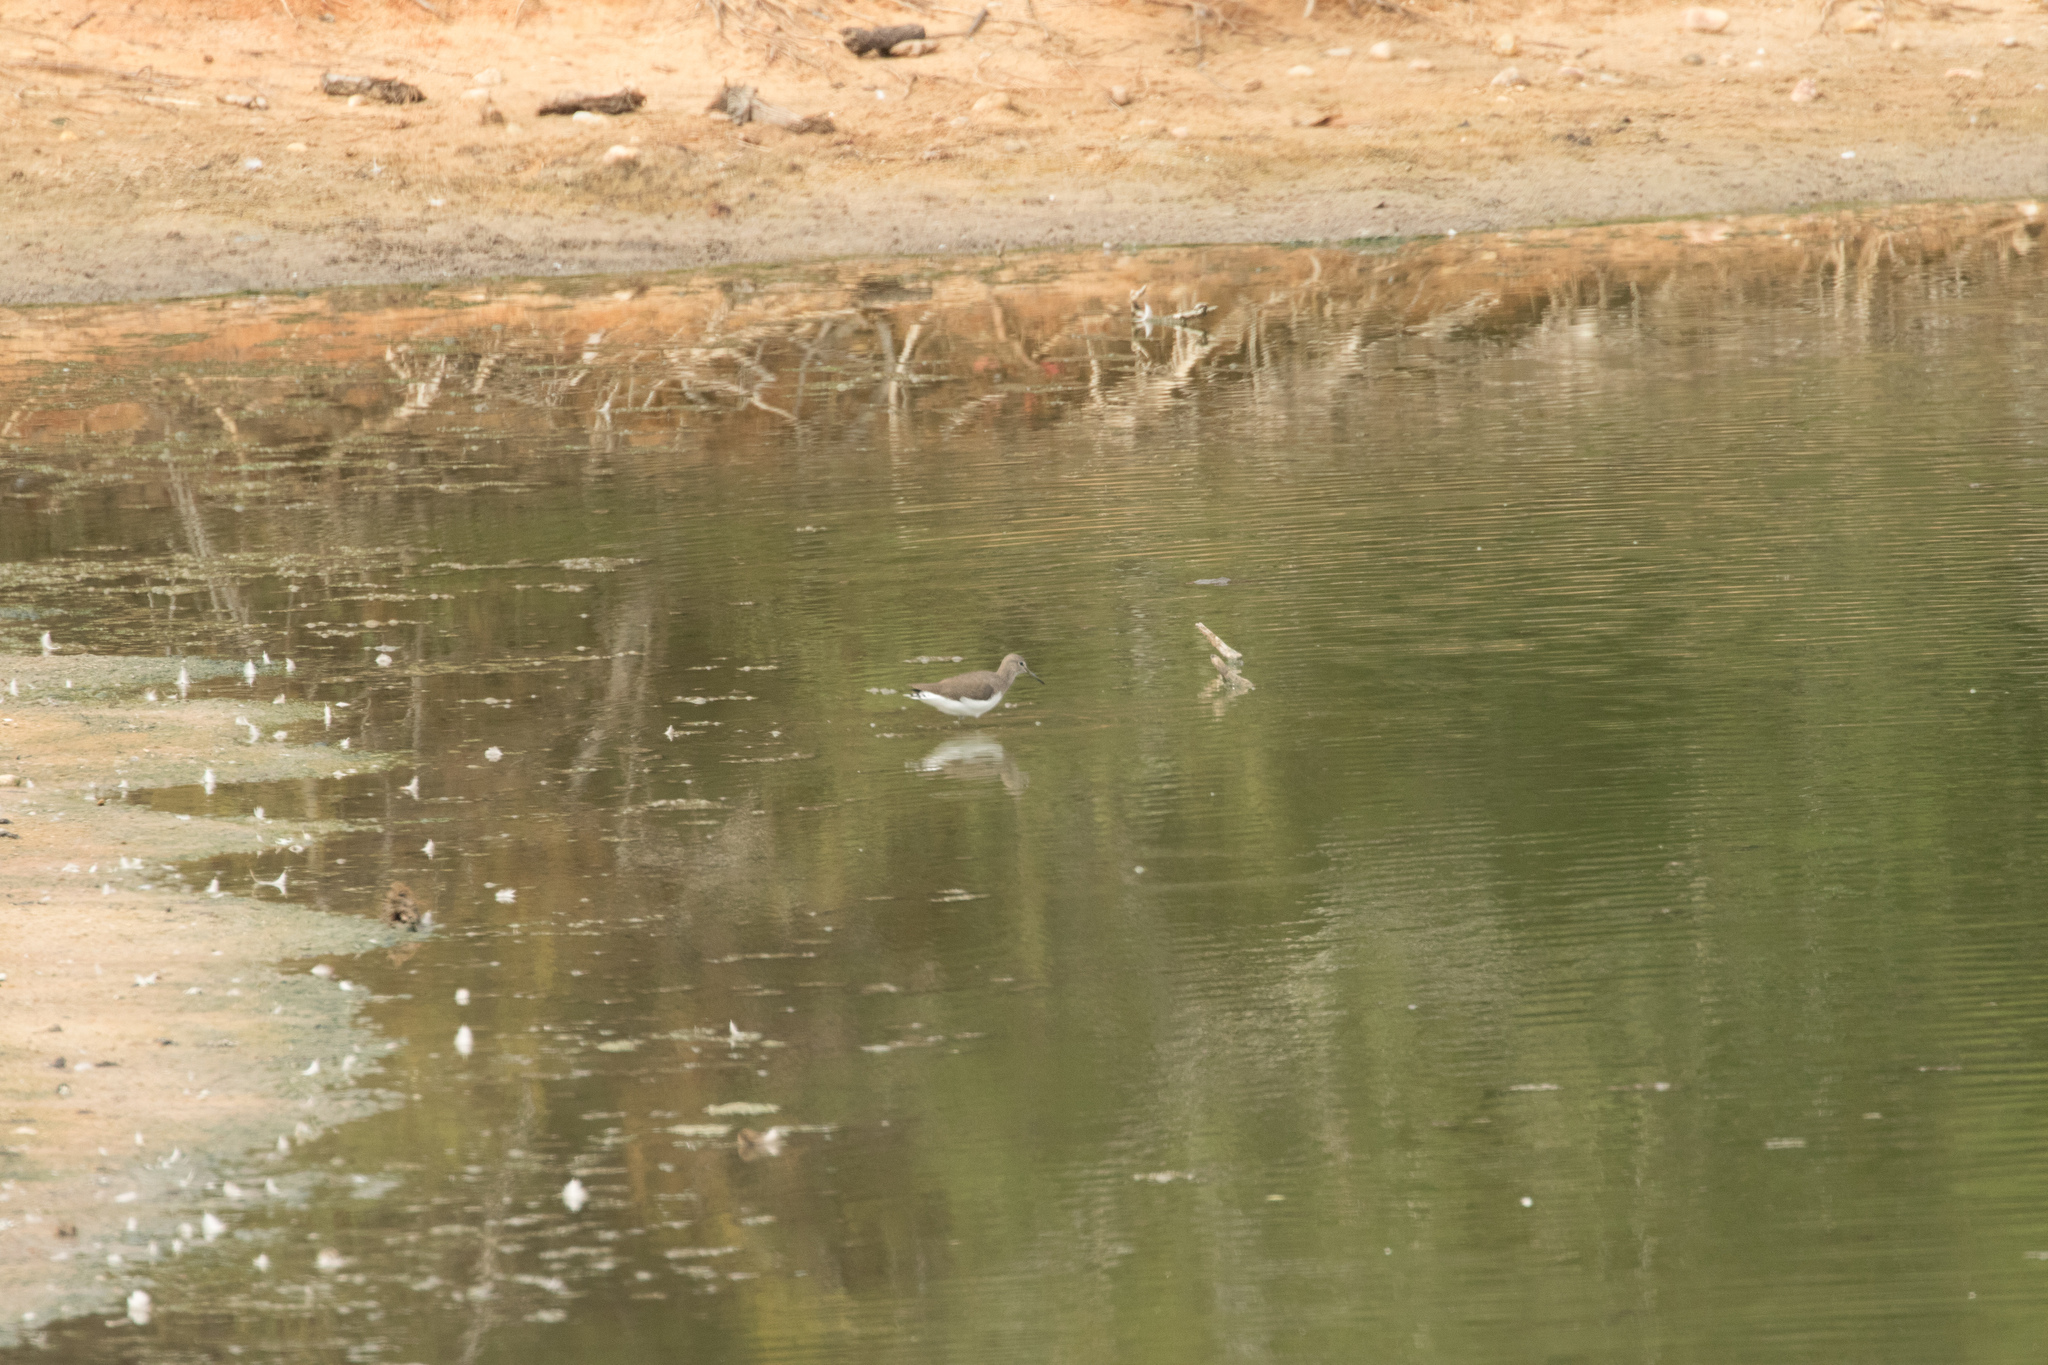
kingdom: Animalia
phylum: Chordata
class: Aves
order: Charadriiformes
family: Scolopacidae
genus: Tringa
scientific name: Tringa ochropus
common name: Green sandpiper
